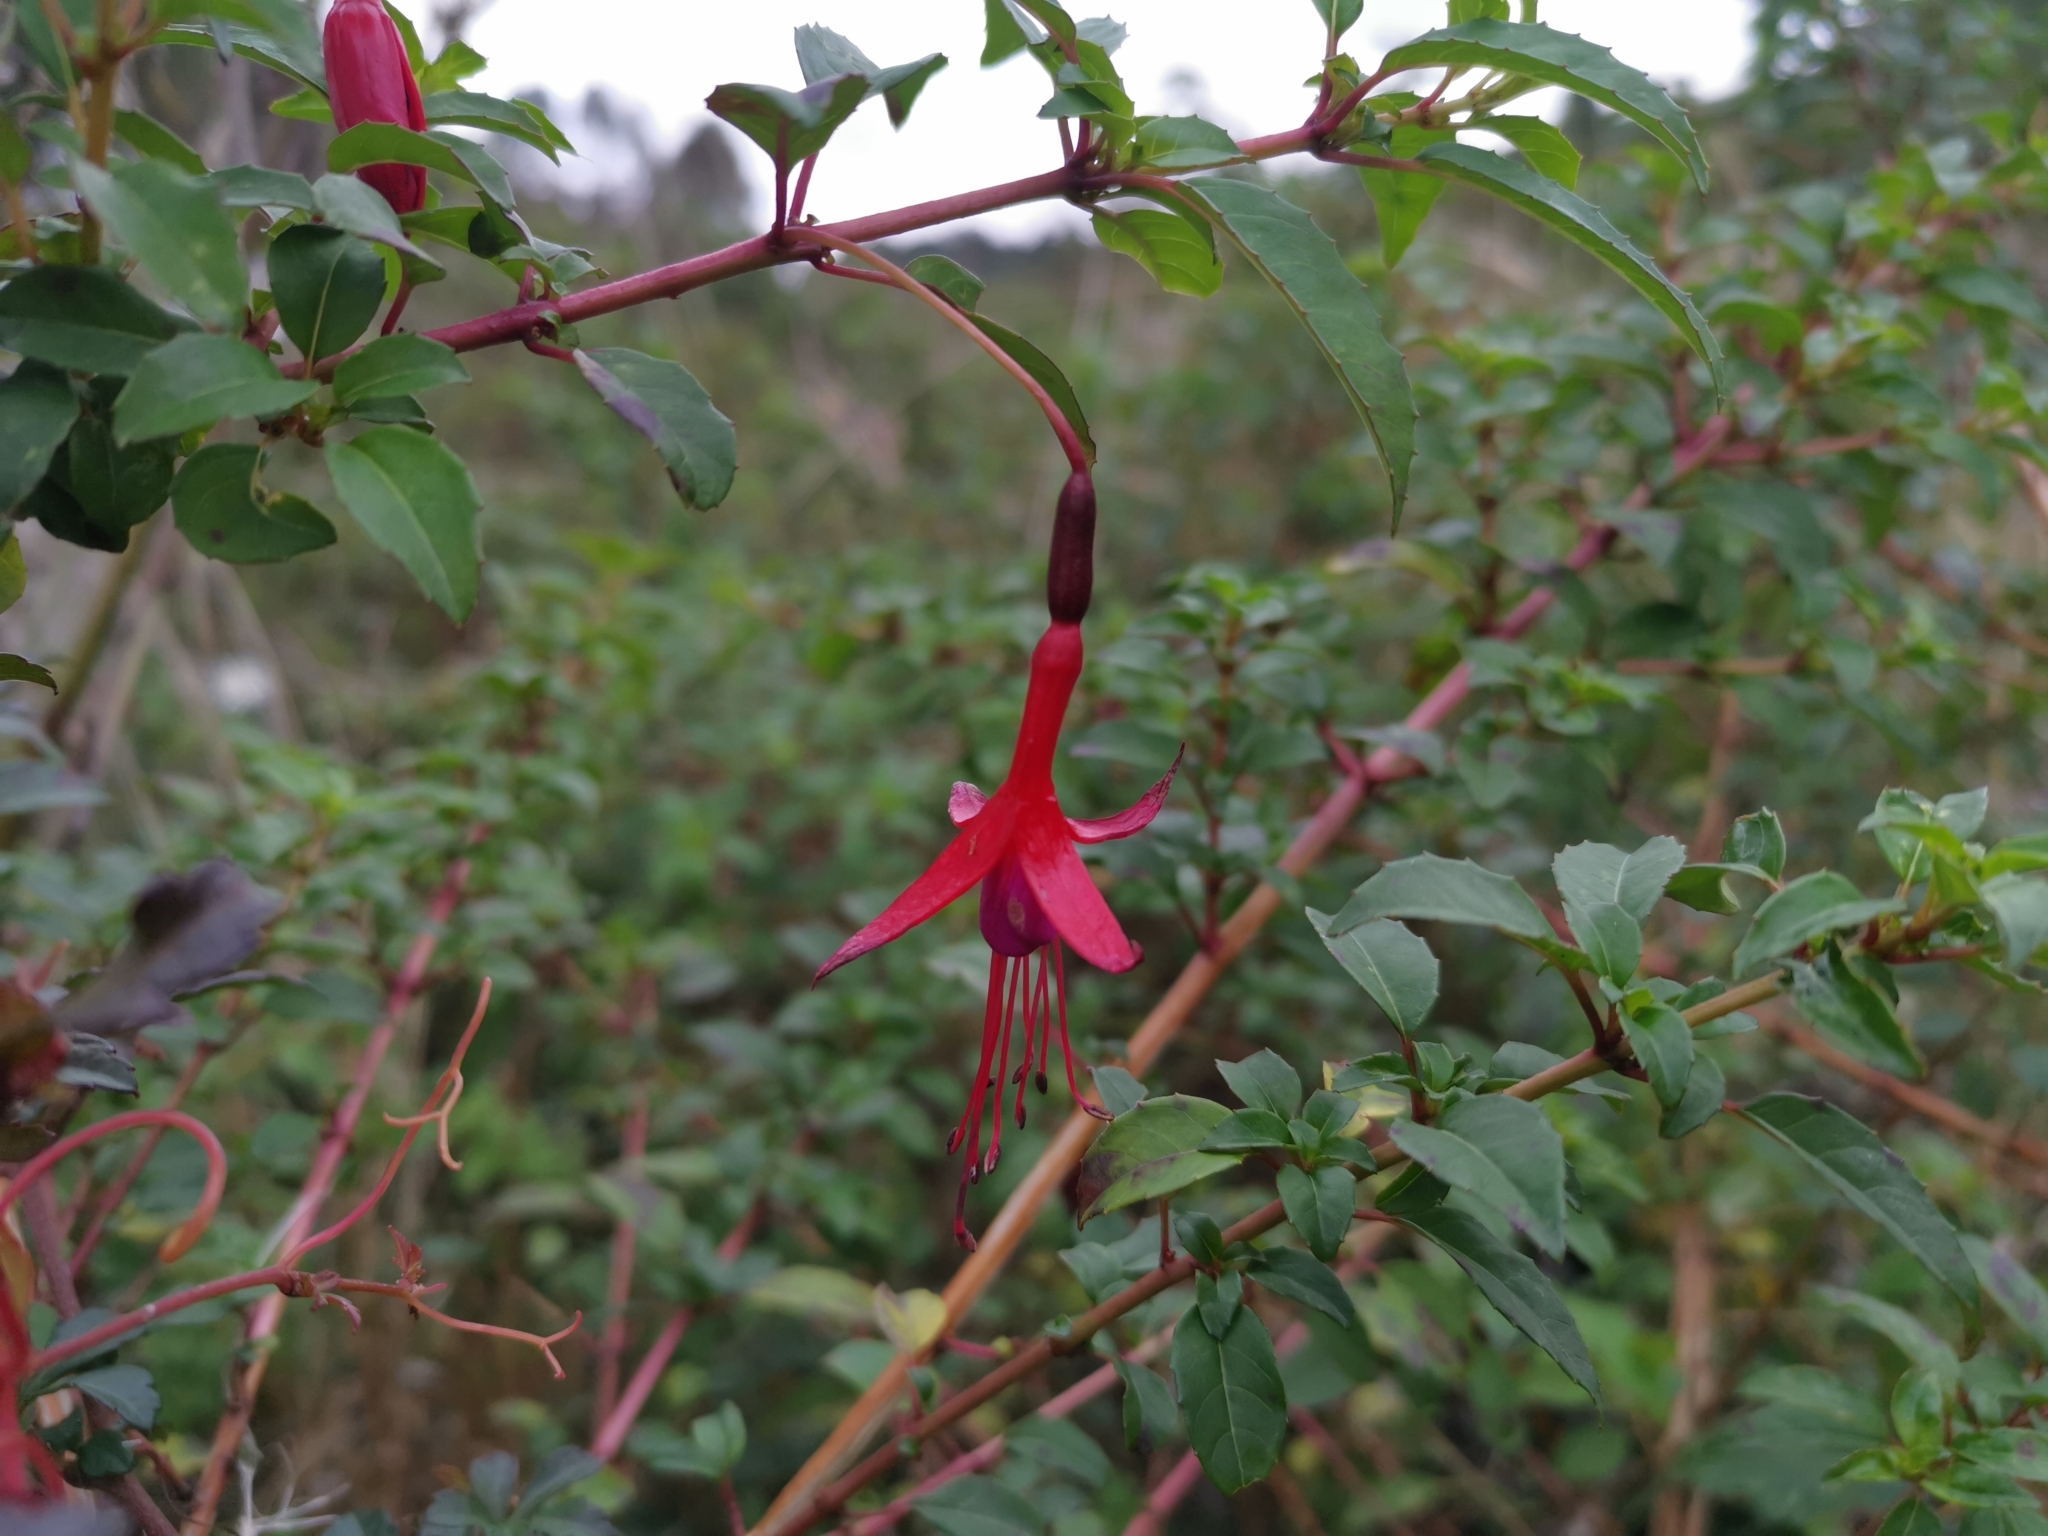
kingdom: Plantae
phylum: Tracheophyta
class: Magnoliopsida
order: Myrtales
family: Onagraceae
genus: Fuchsia
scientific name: Fuchsia magellanica
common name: Hardy fuchsia
